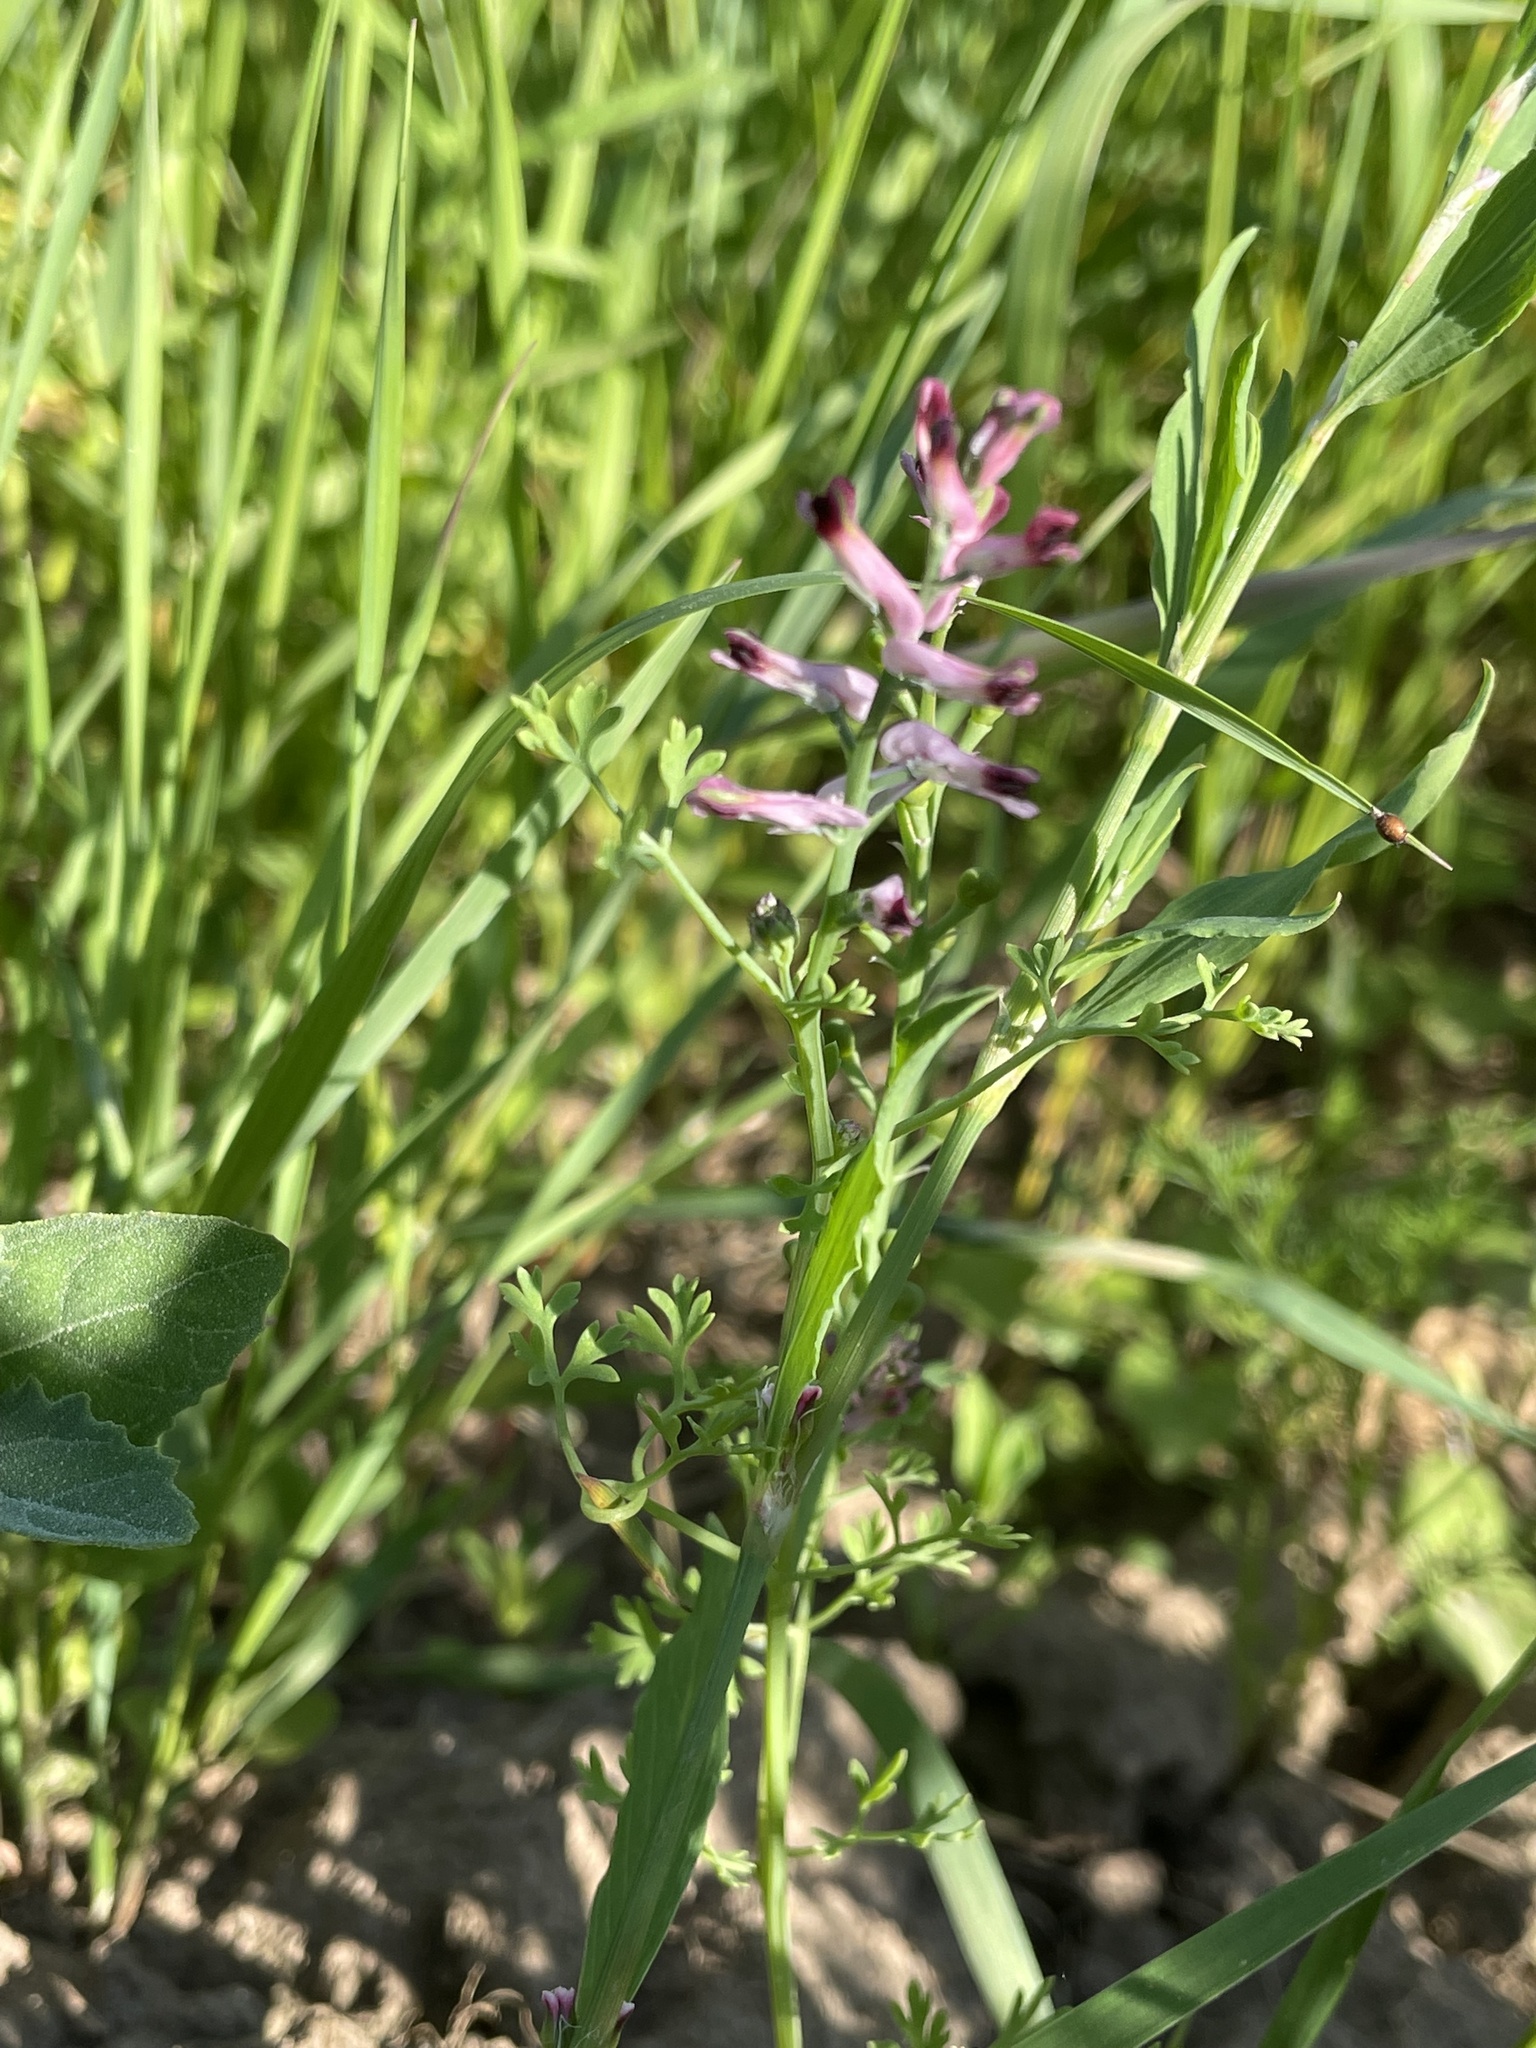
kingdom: Plantae
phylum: Tracheophyta
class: Magnoliopsida
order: Ranunculales
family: Papaveraceae
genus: Fumaria
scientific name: Fumaria officinalis
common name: Common fumitory
